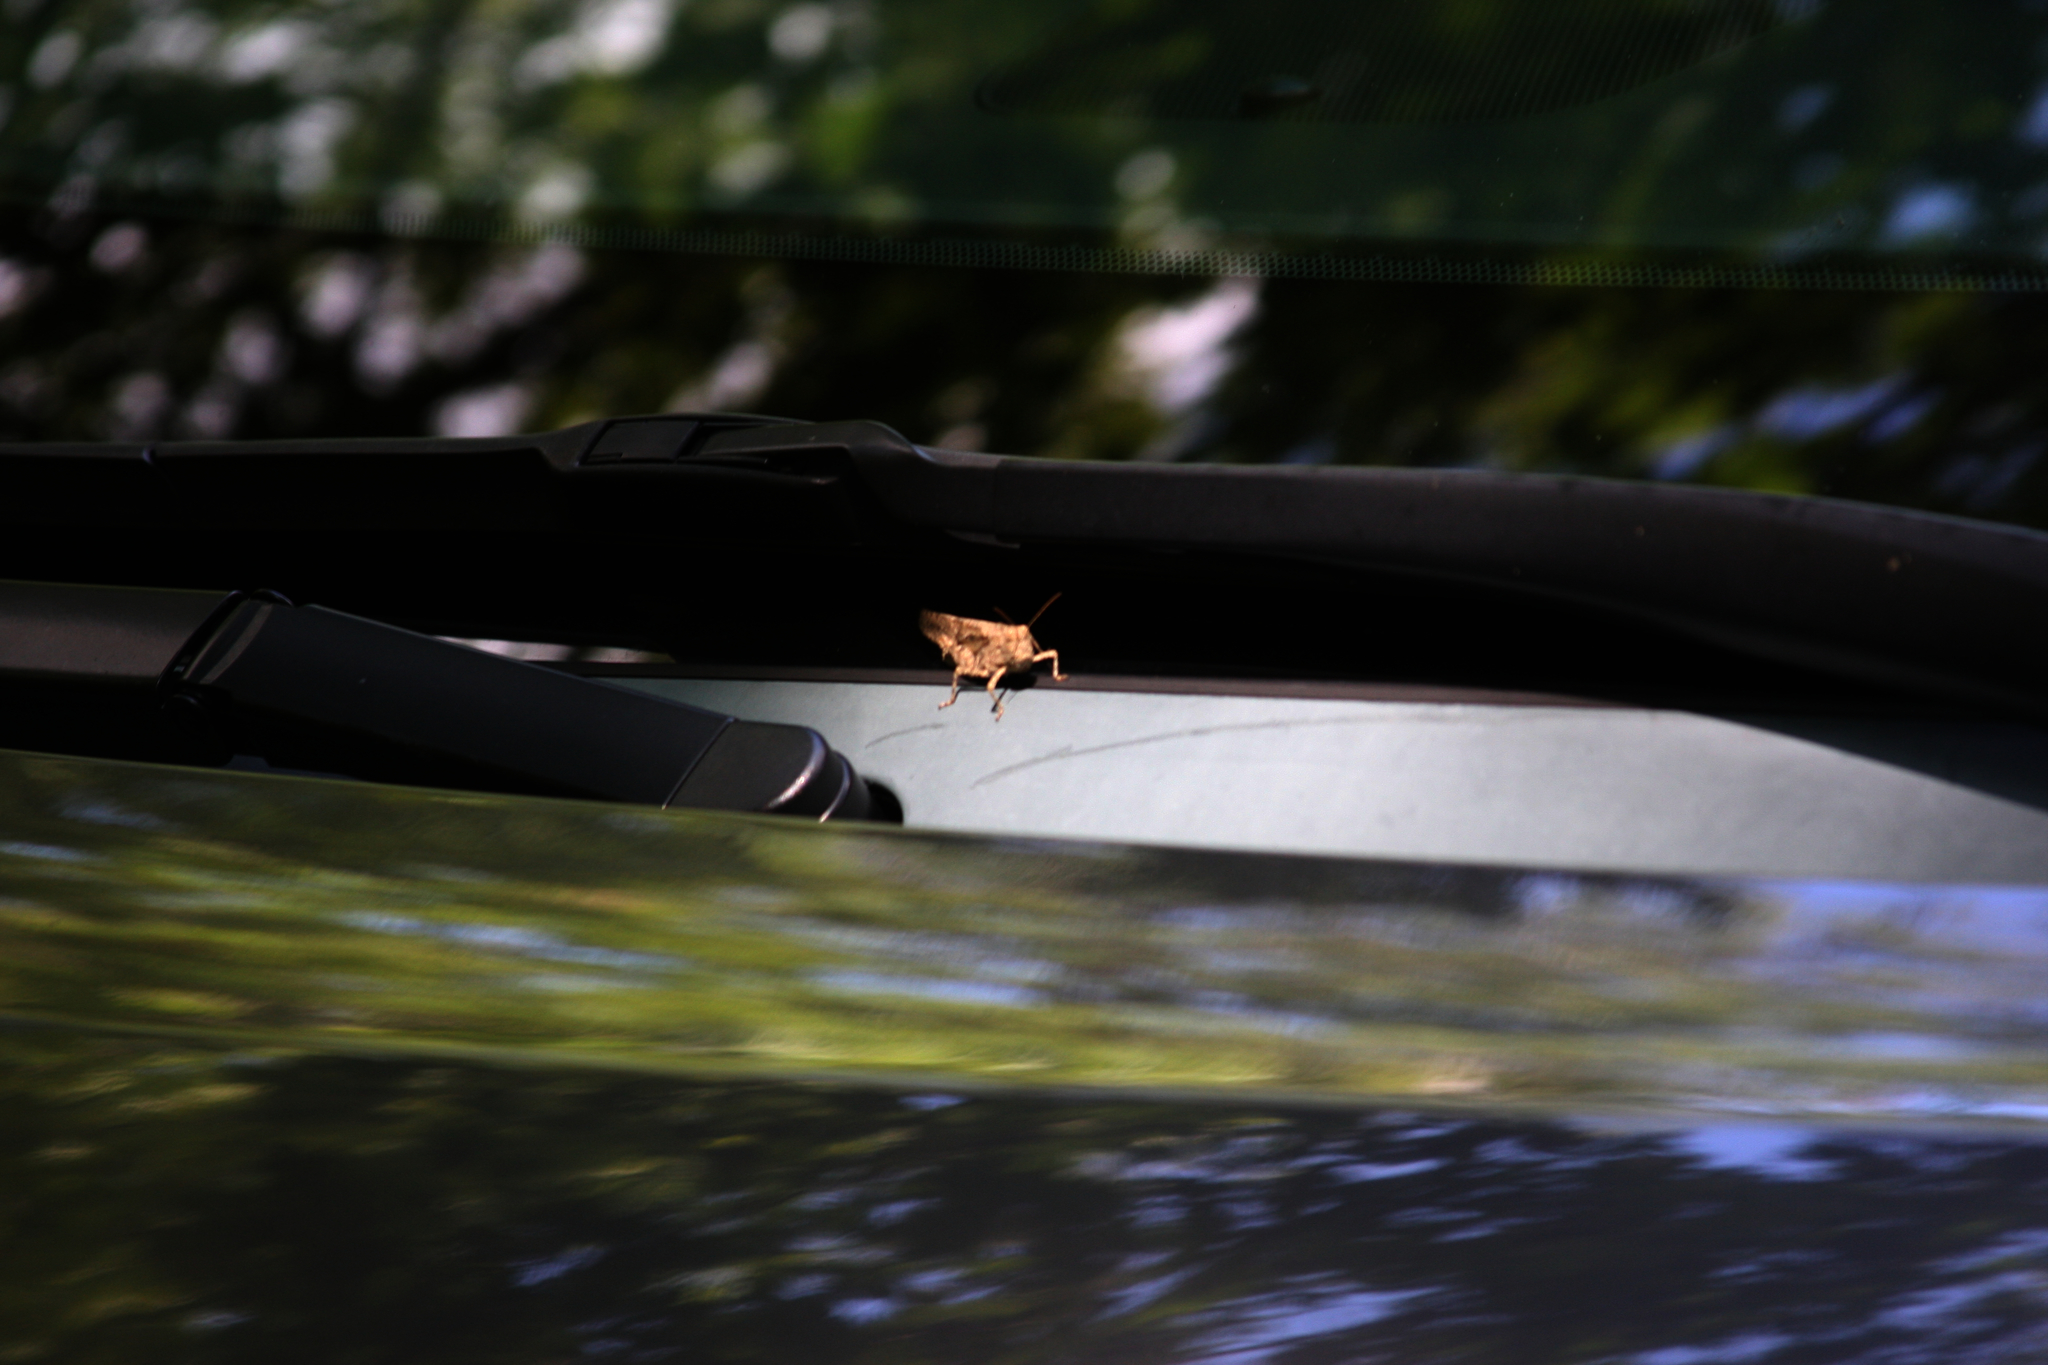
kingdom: Animalia
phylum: Arthropoda
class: Insecta
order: Orthoptera
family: Acrididae
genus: Dissosteira
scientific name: Dissosteira carolina
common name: Carolina grasshopper
